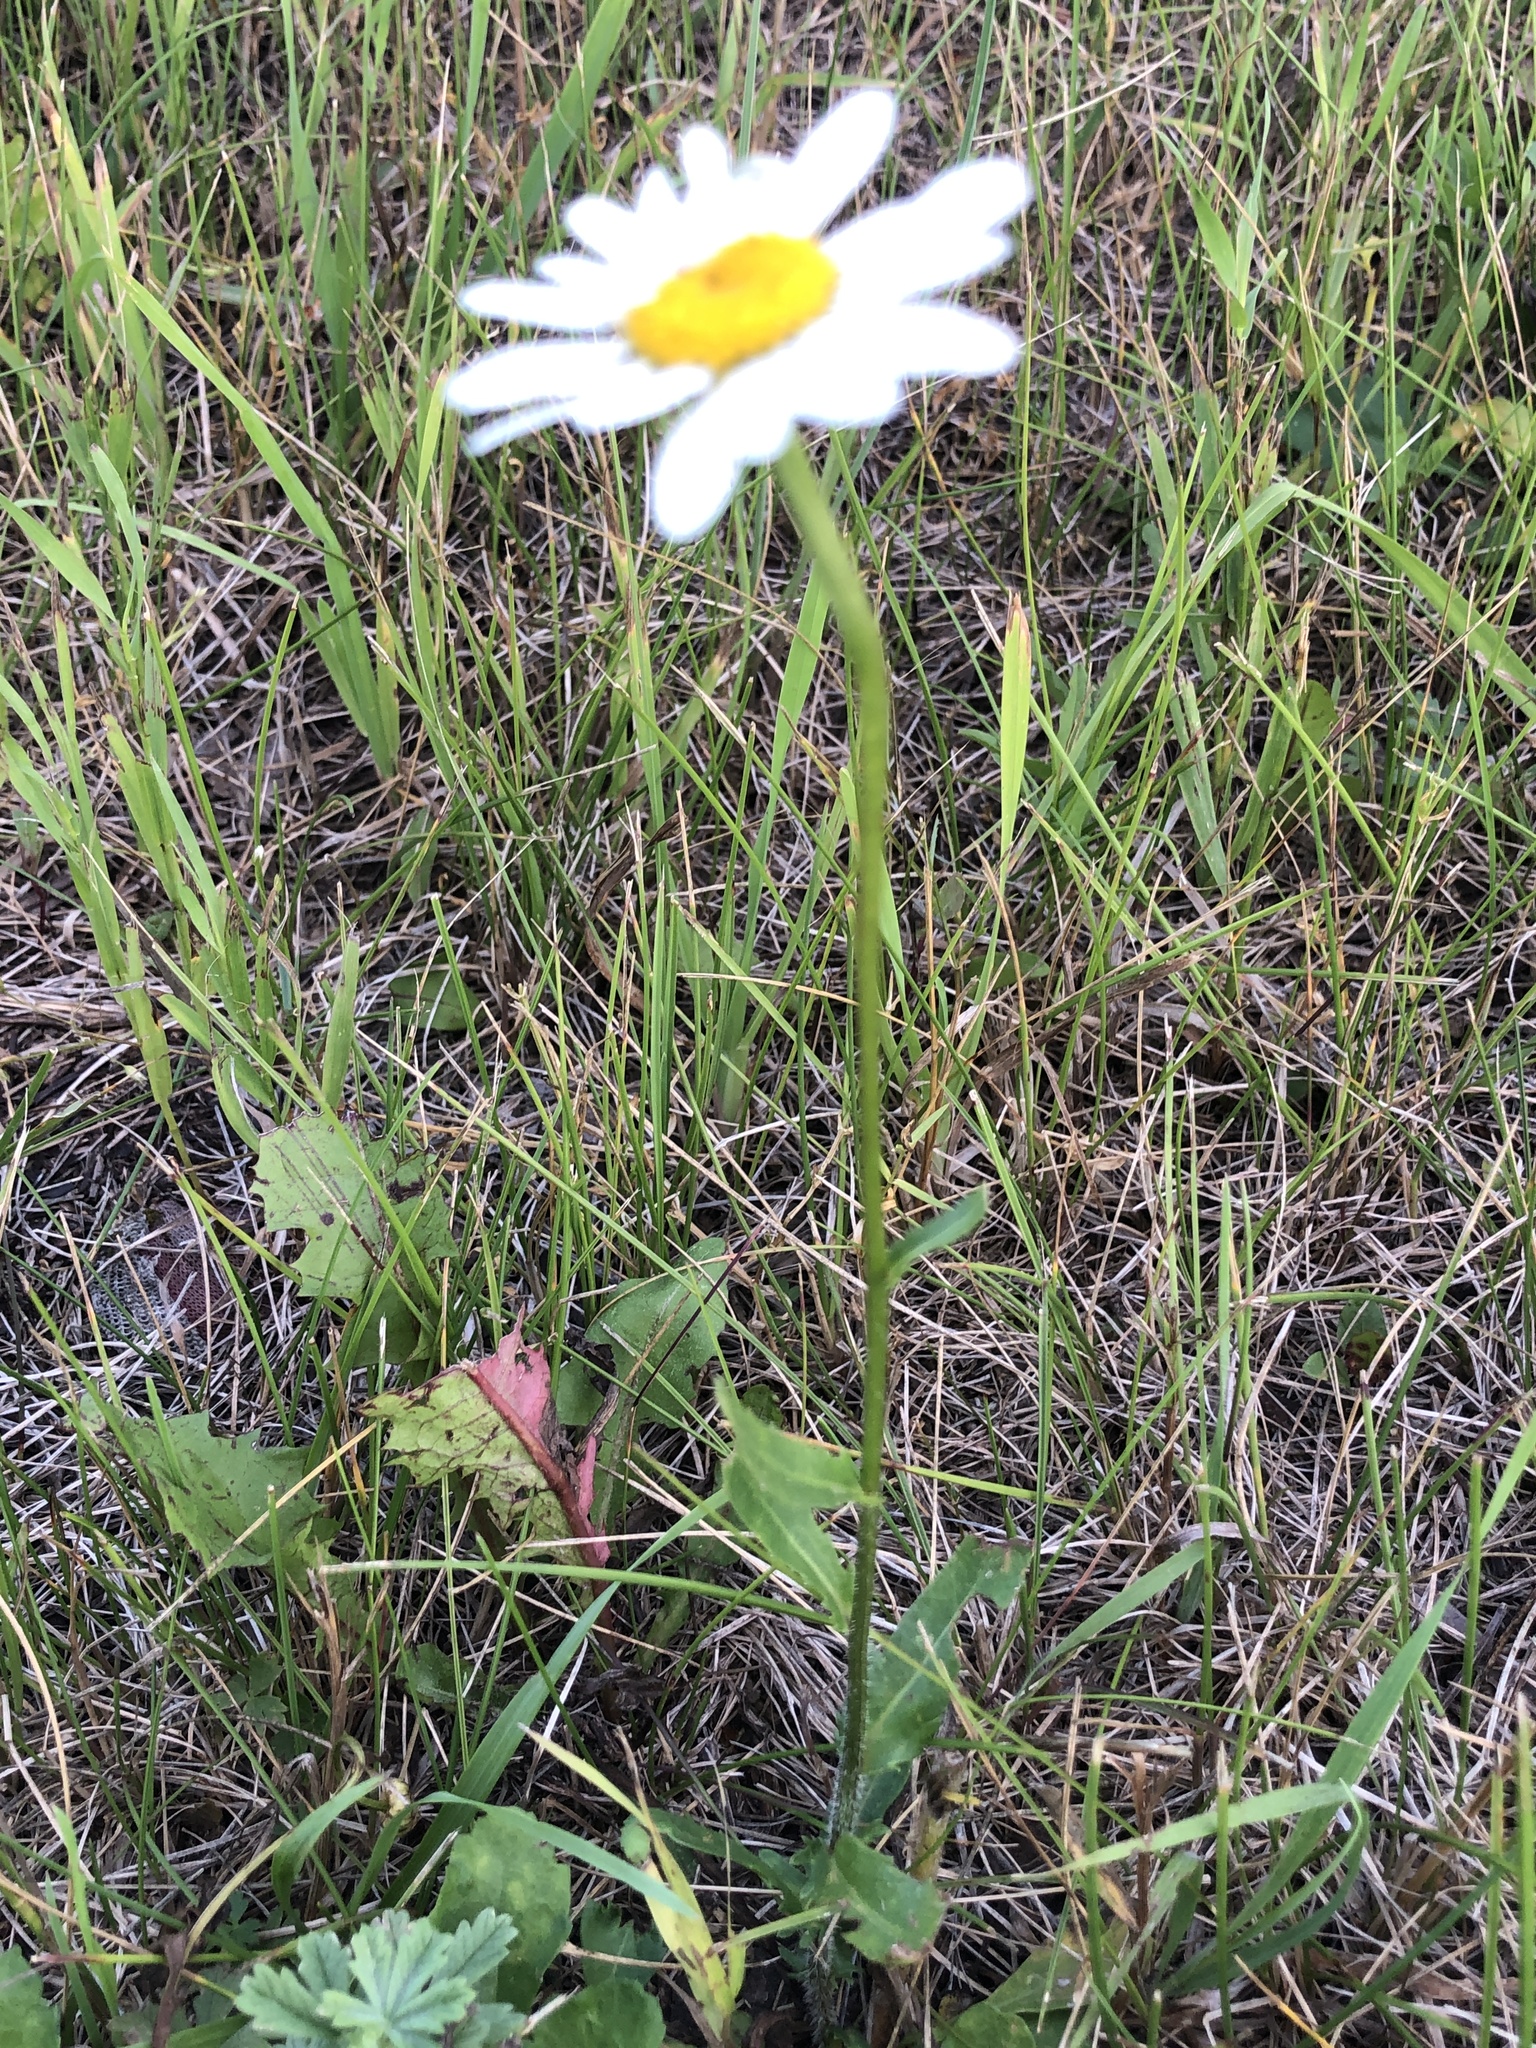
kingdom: Plantae
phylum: Tracheophyta
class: Magnoliopsida
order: Asterales
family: Asteraceae
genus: Leucanthemum
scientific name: Leucanthemum vulgare
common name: Oxeye daisy
